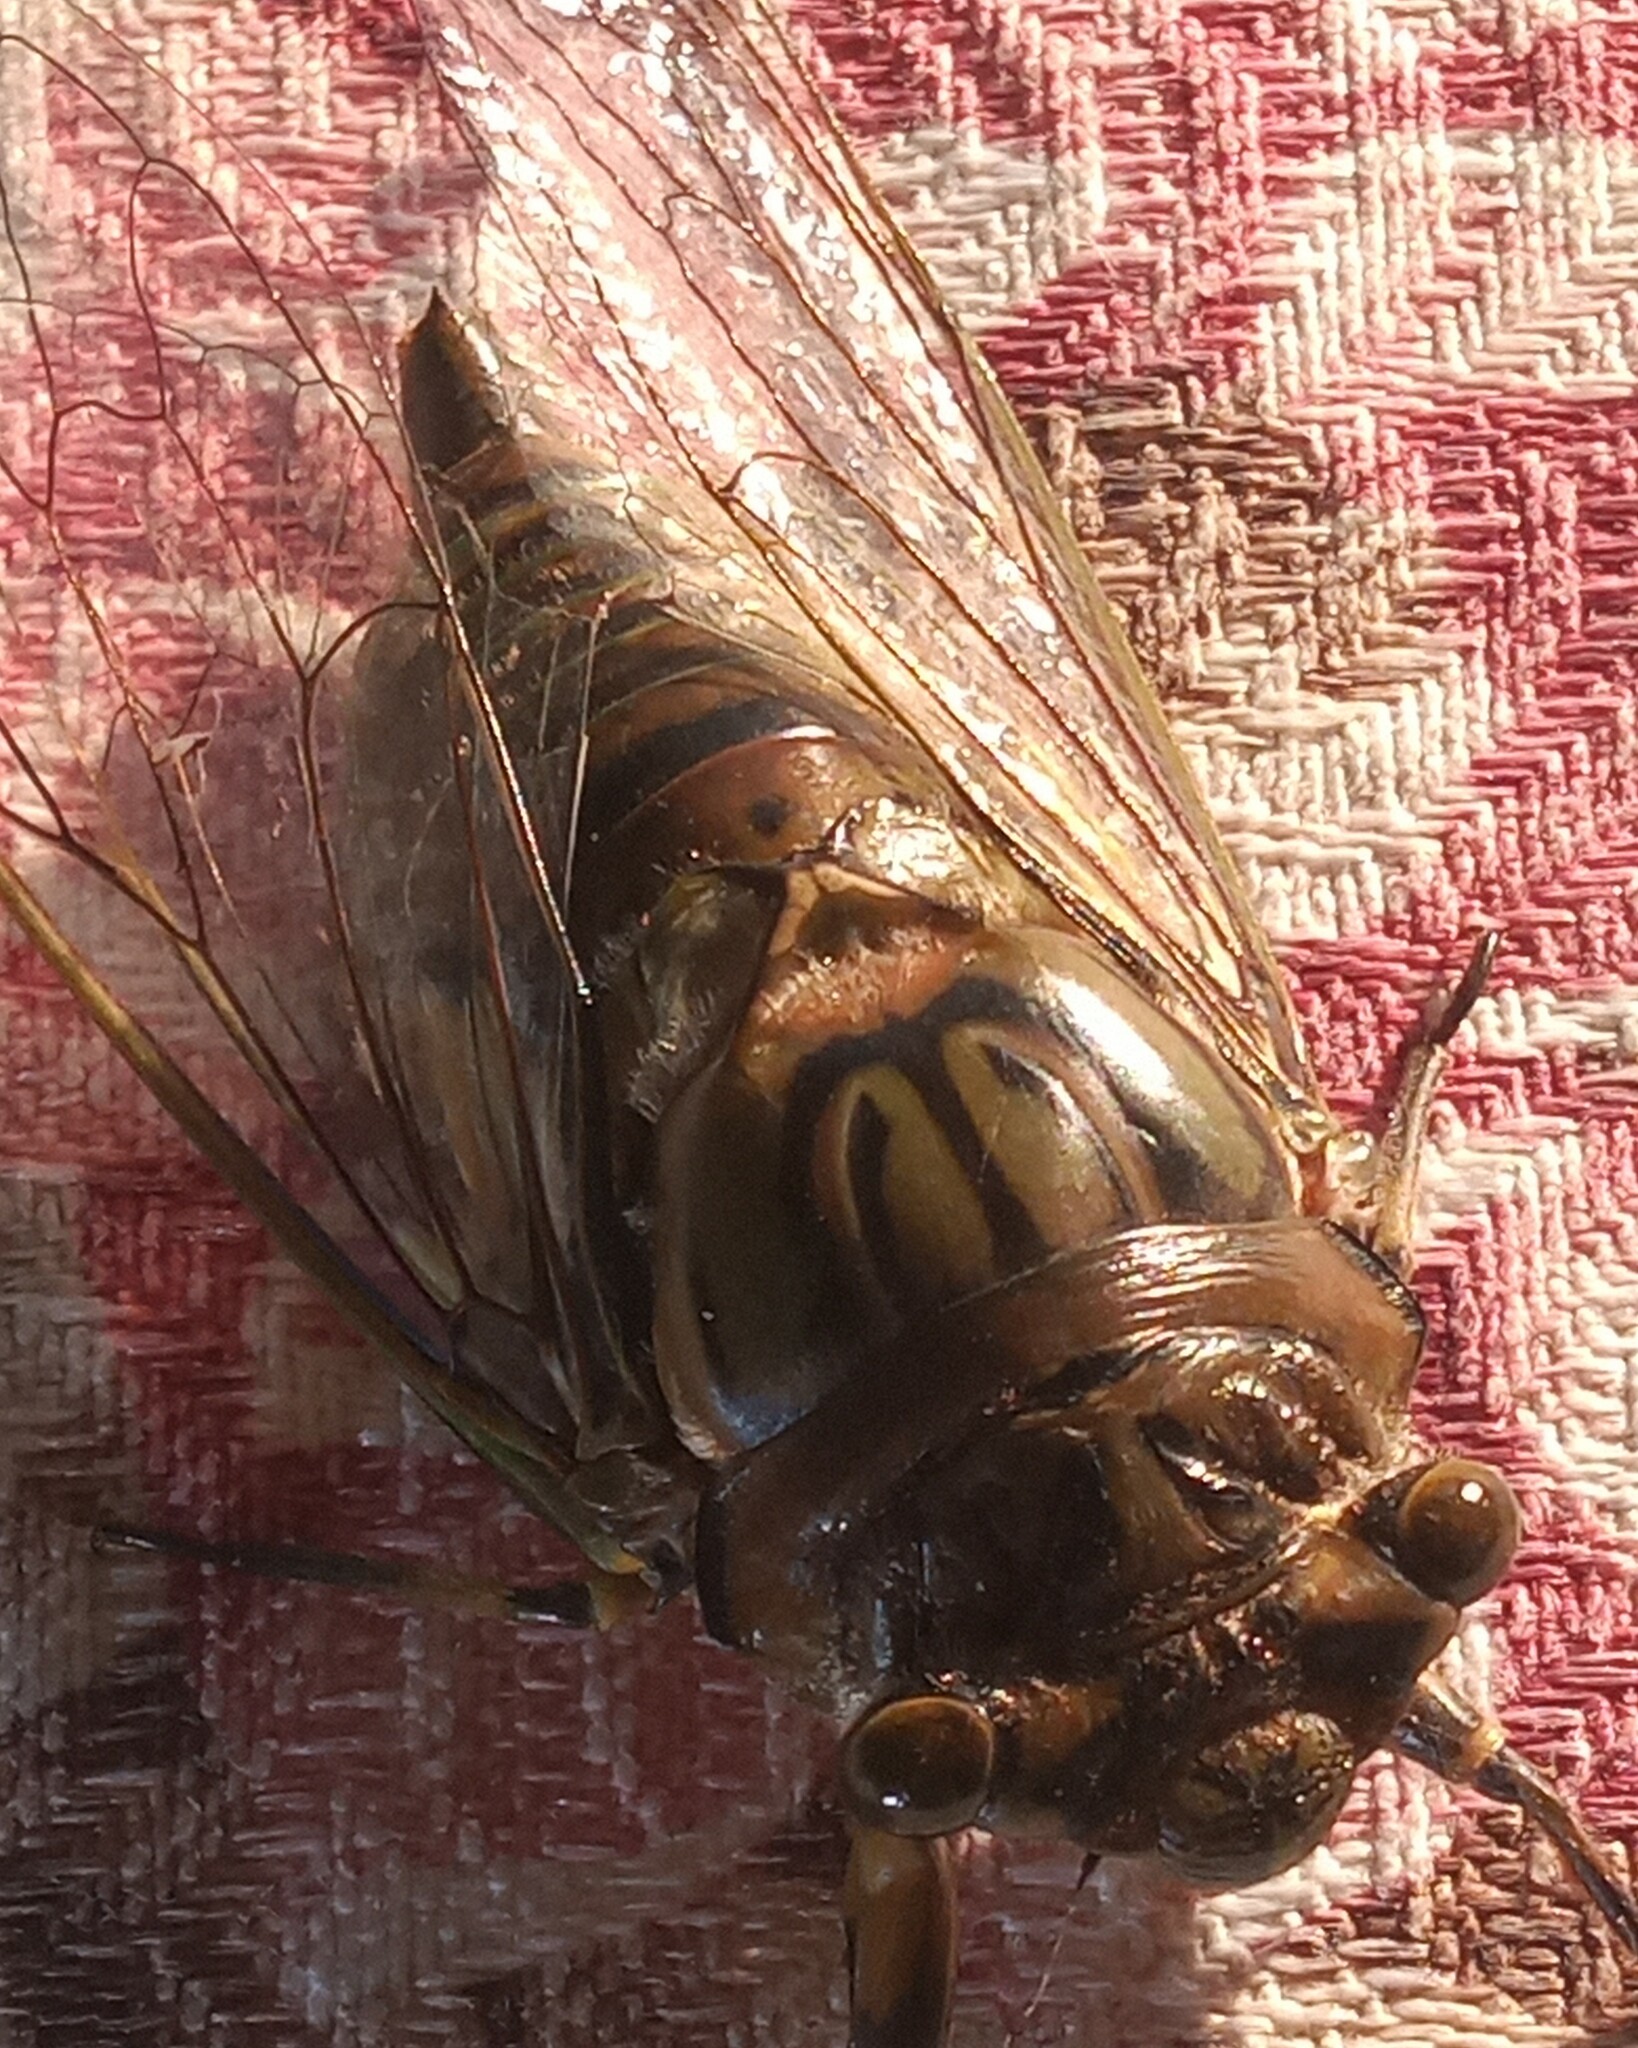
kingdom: Animalia
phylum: Arthropoda
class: Insecta
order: Hemiptera
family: Cicadidae
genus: Quesada
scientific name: Quesada gigas
